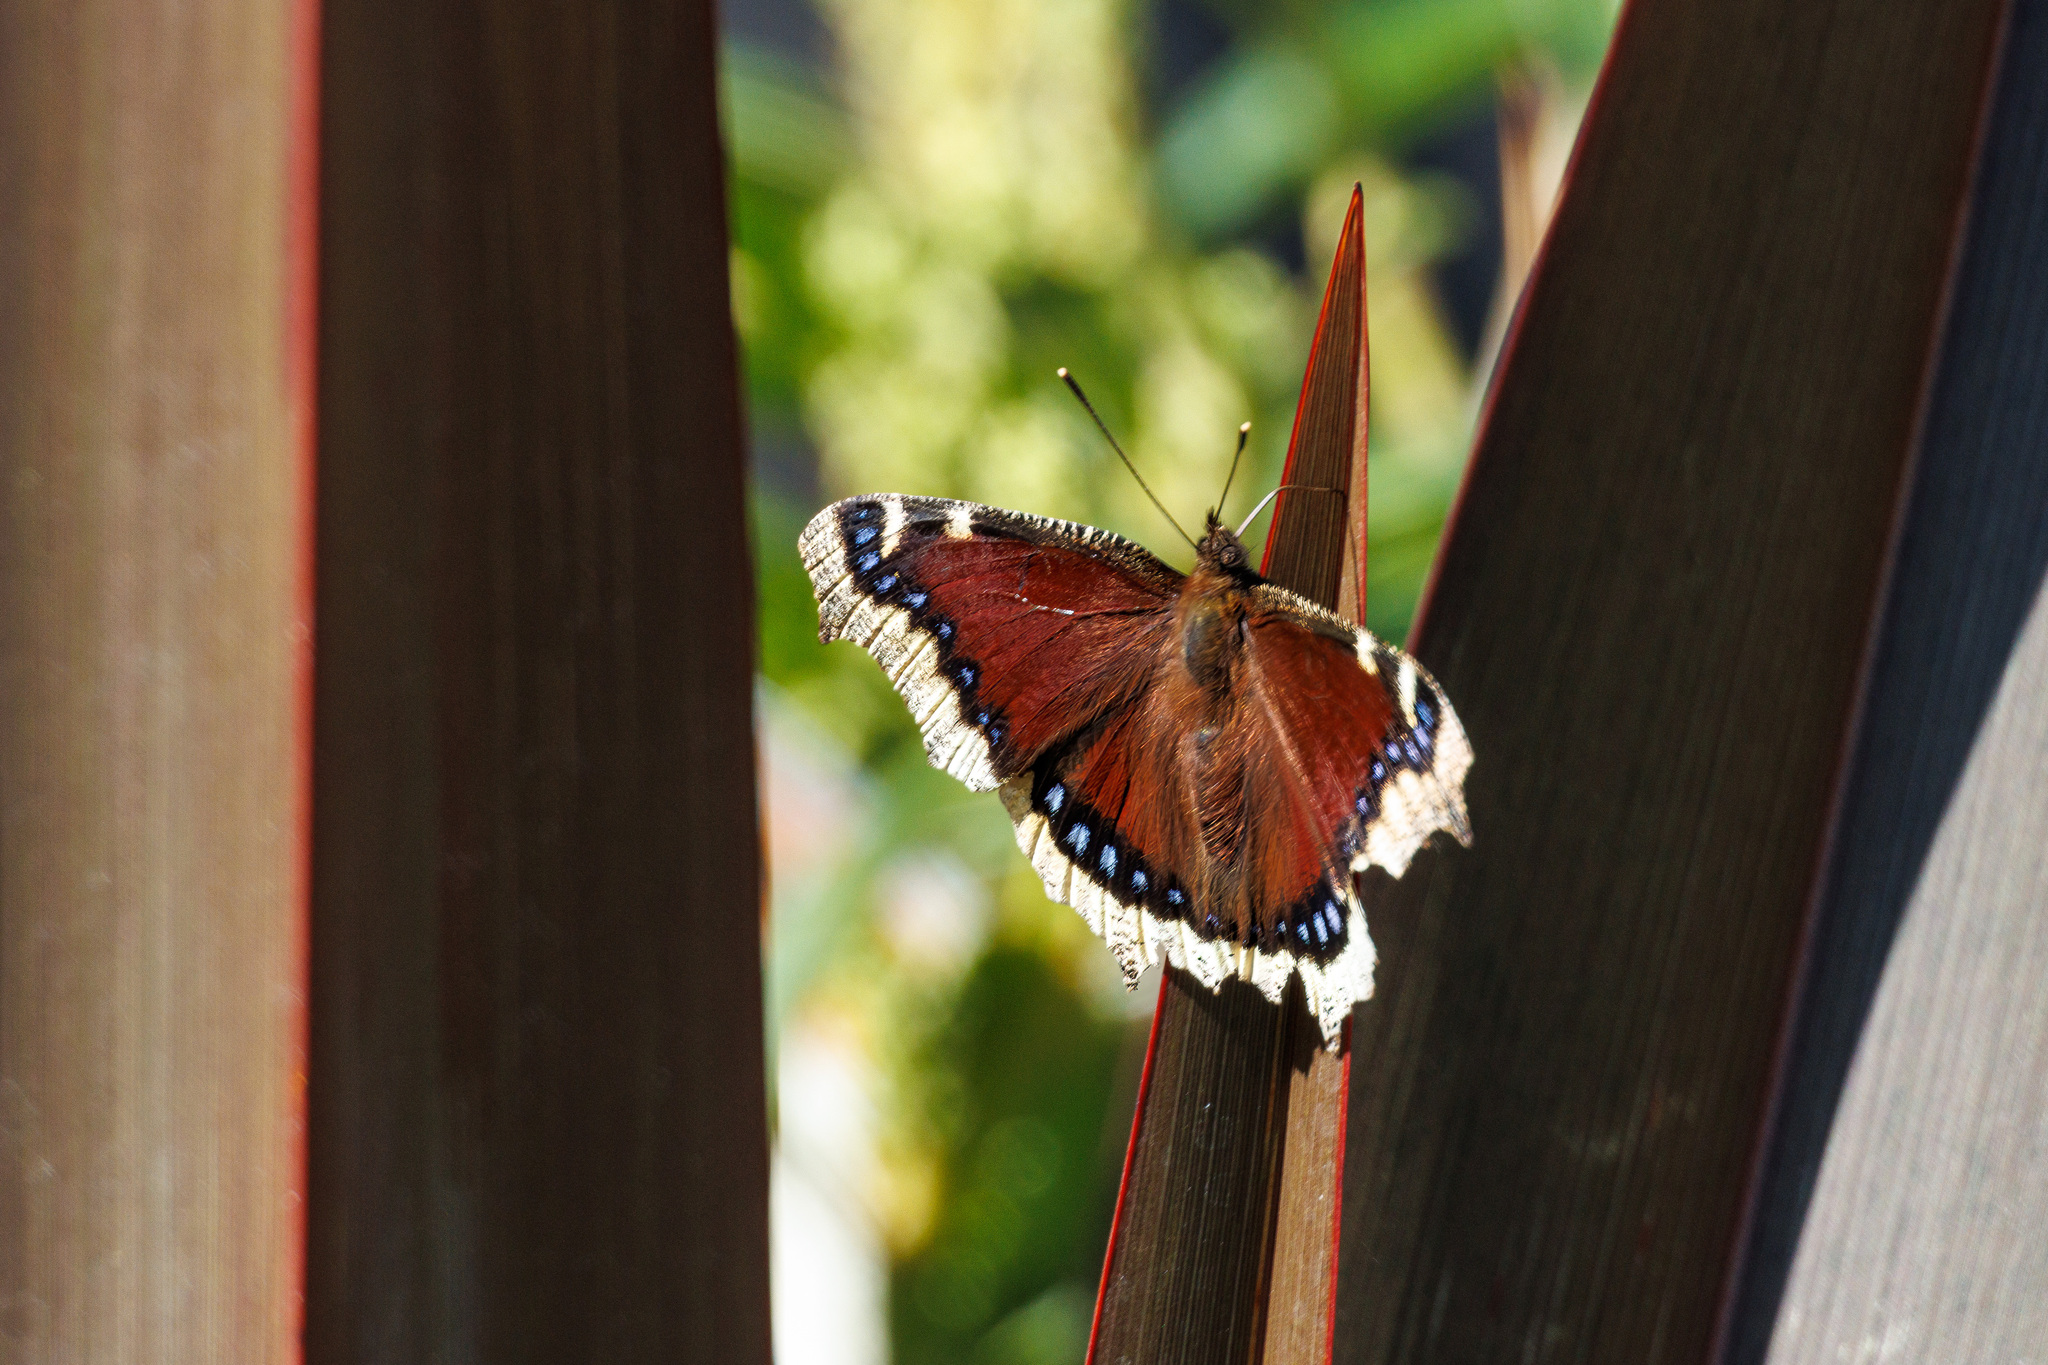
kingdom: Animalia
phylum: Arthropoda
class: Insecta
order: Lepidoptera
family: Nymphalidae
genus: Nymphalis
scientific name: Nymphalis antiopa
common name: Camberwell beauty
